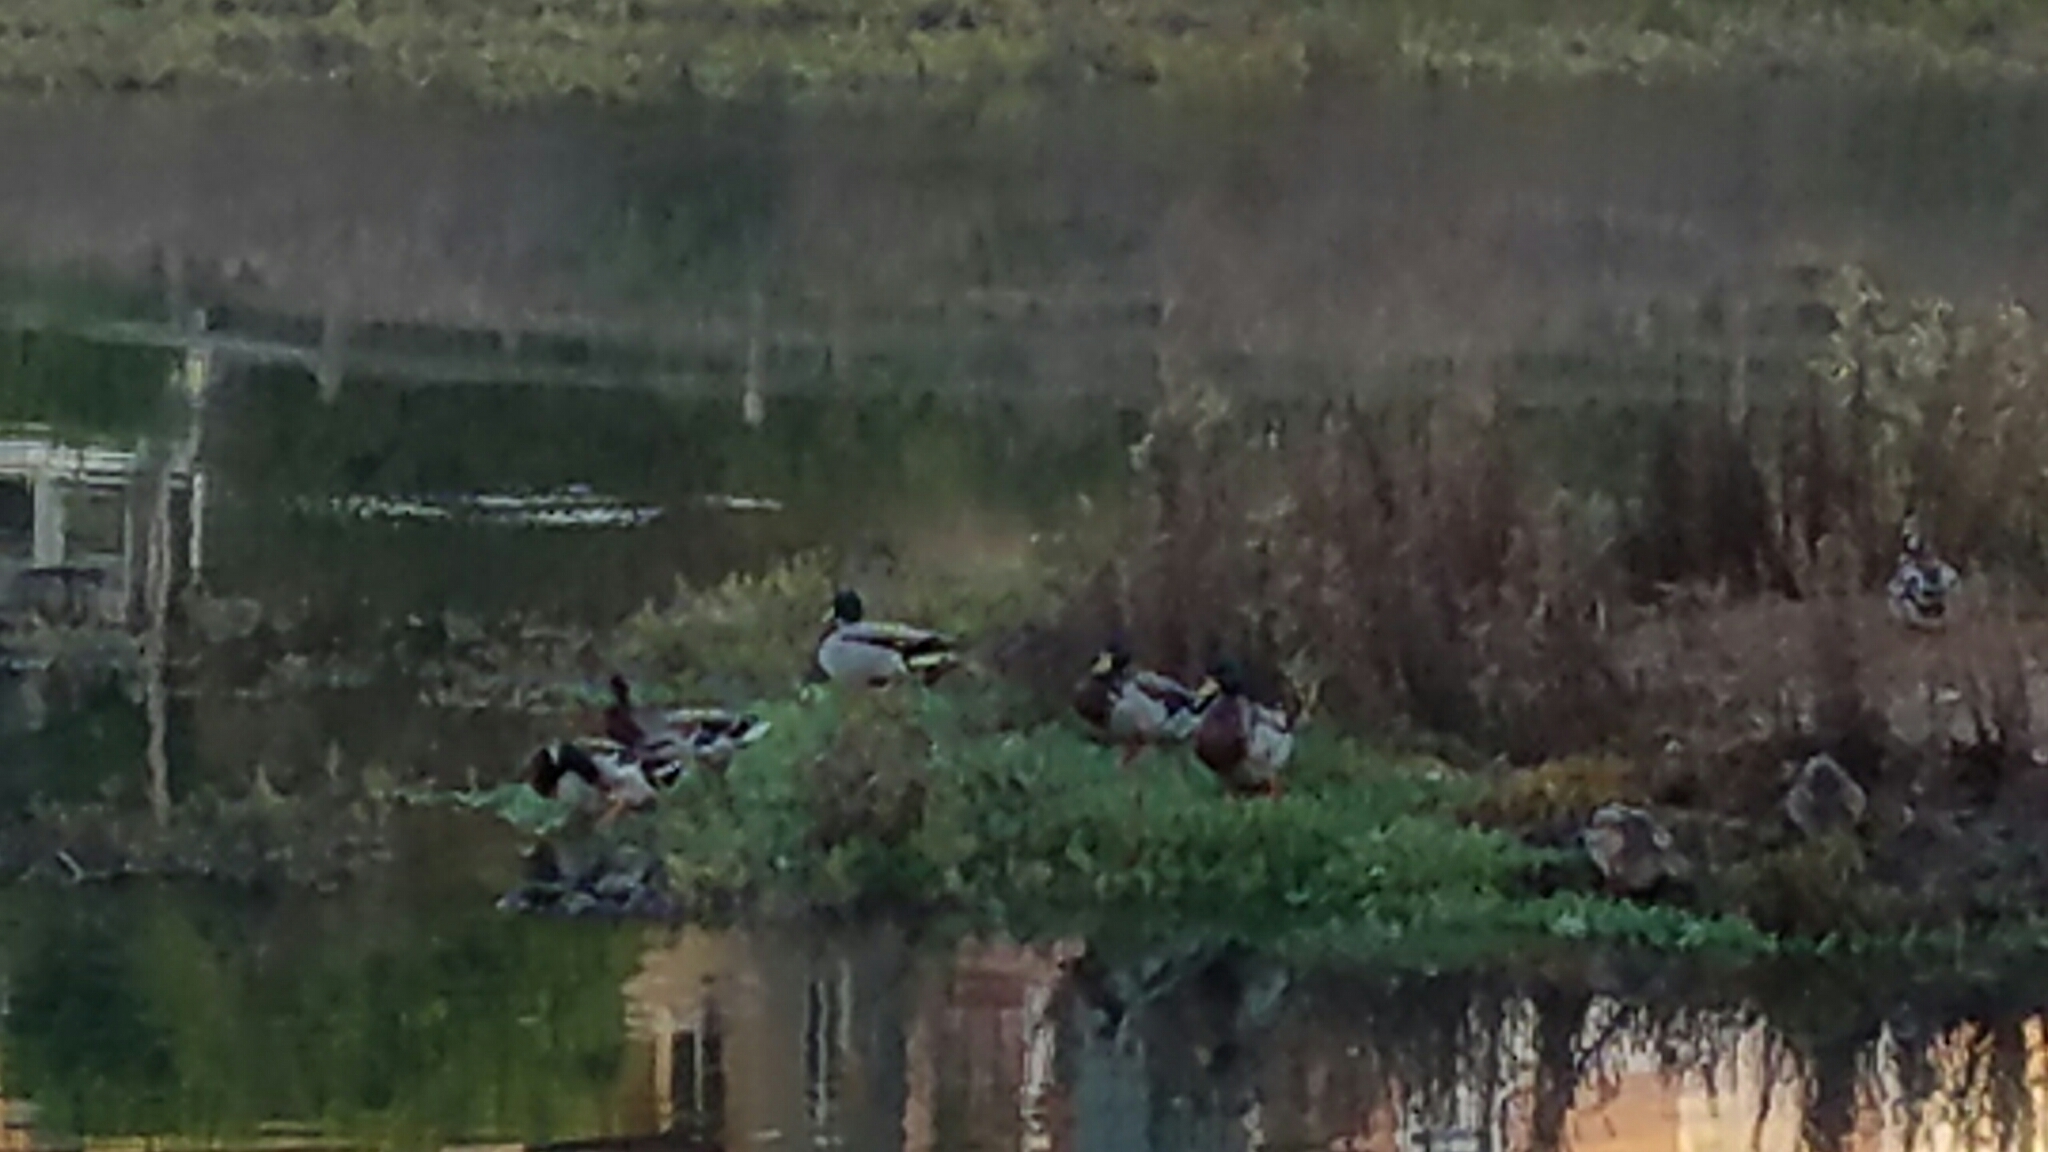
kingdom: Animalia
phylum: Chordata
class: Aves
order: Anseriformes
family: Anatidae
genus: Anas
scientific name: Anas platyrhynchos
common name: Mallard
